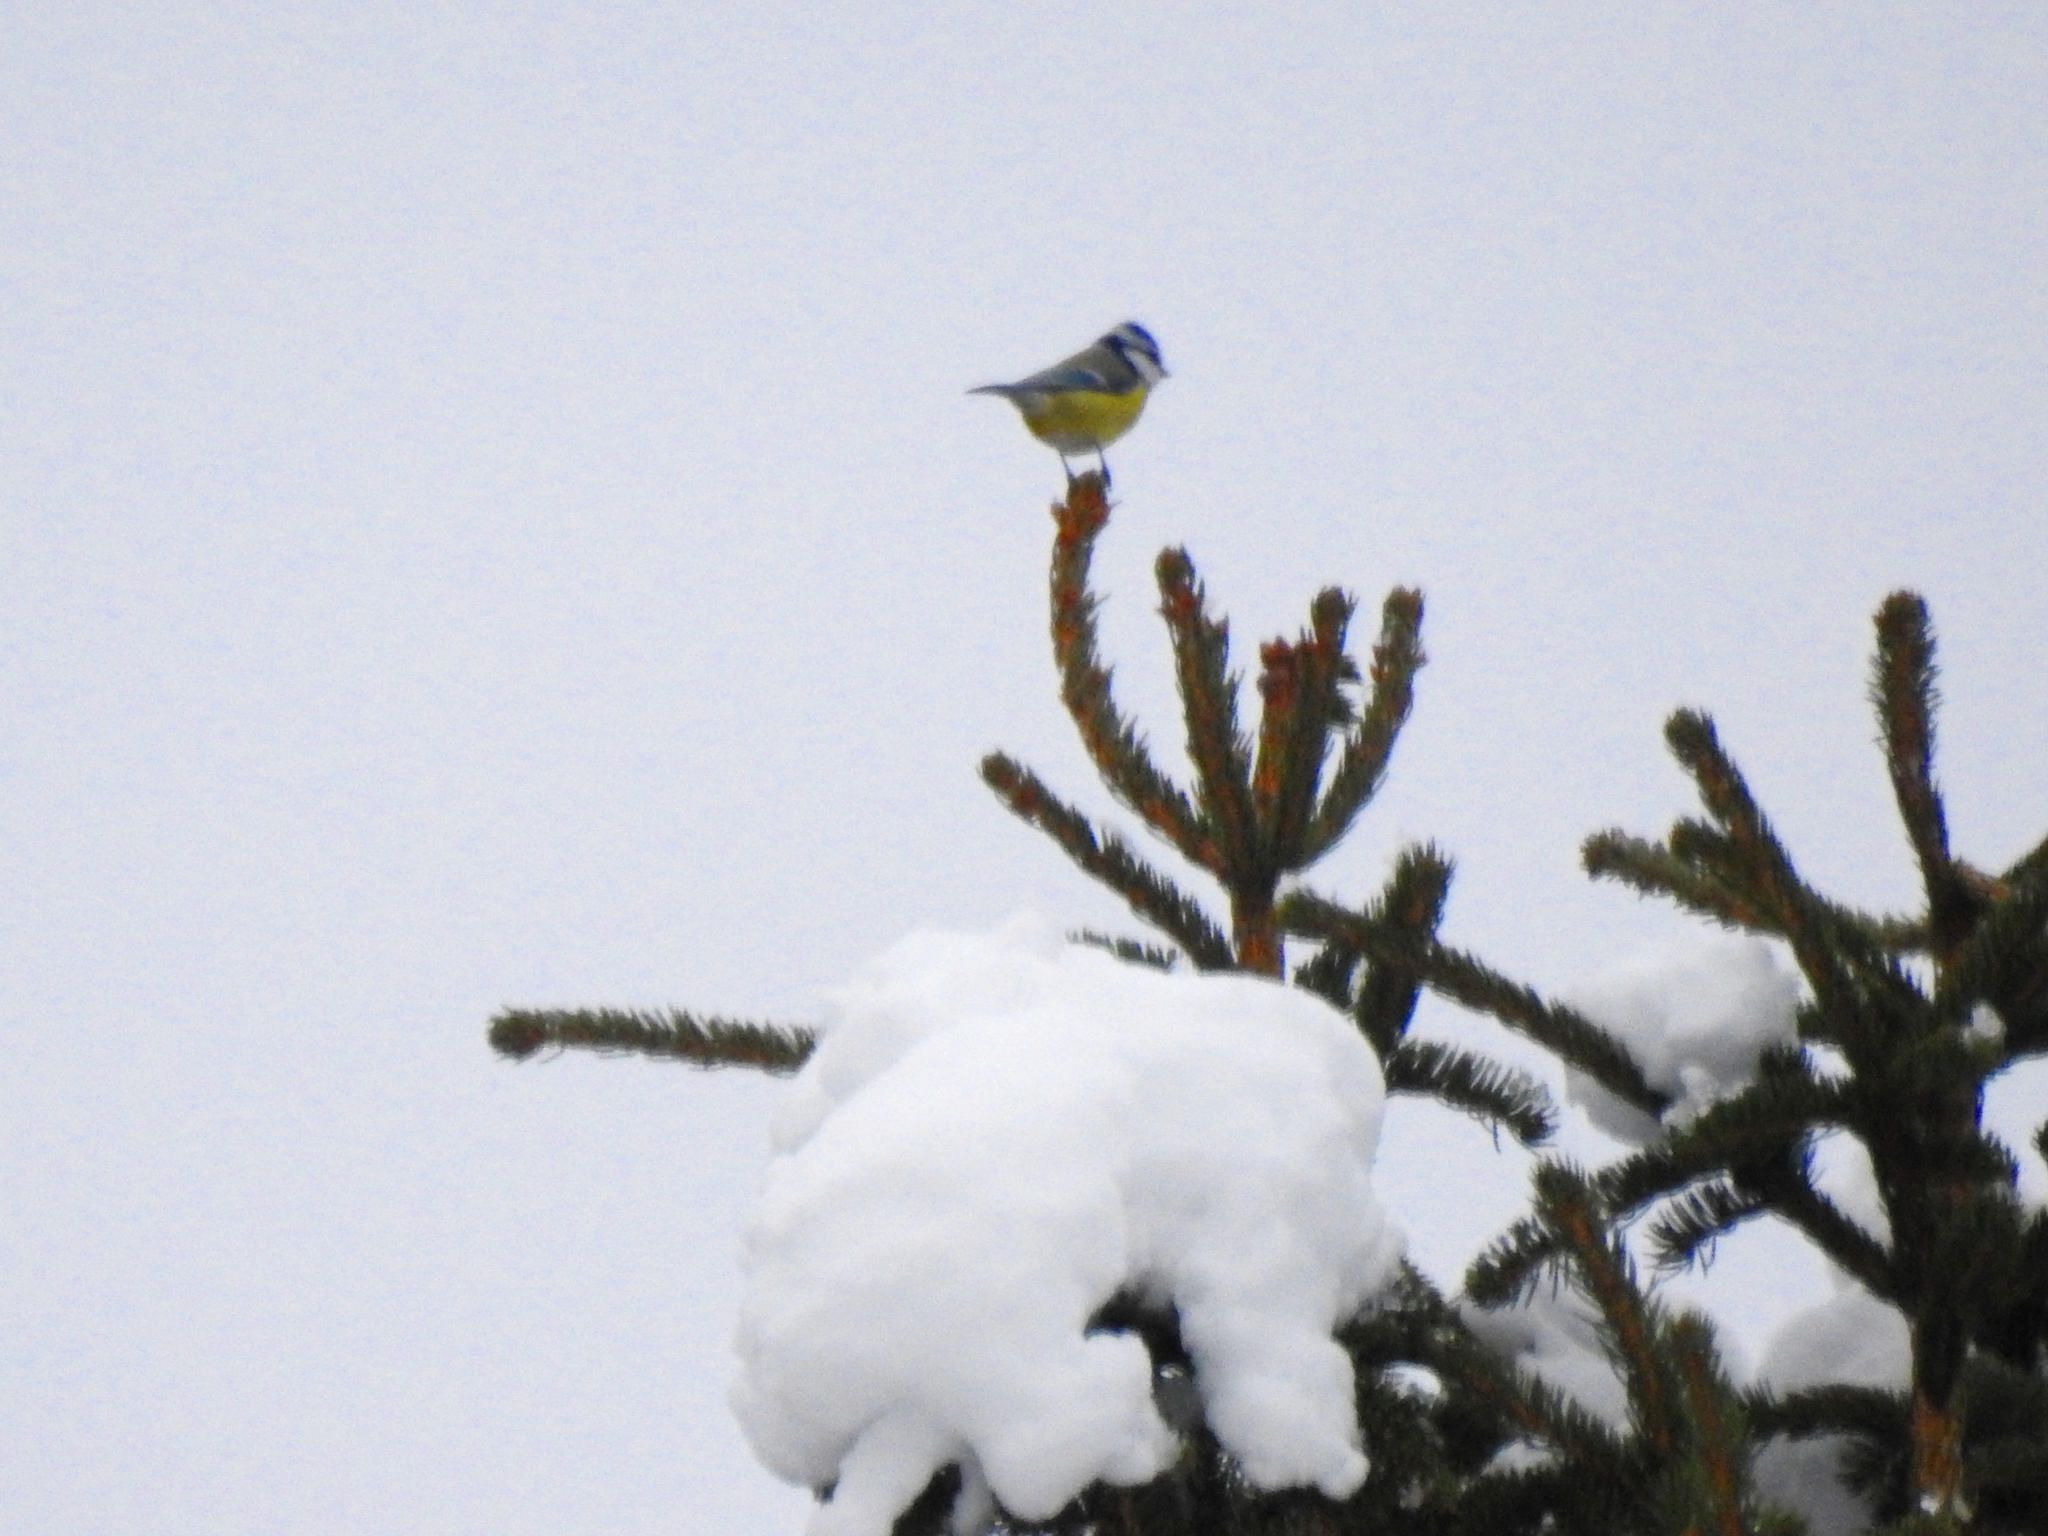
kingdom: Animalia
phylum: Chordata
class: Aves
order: Passeriformes
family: Paridae
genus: Cyanistes
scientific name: Cyanistes caeruleus
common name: Eurasian blue tit
